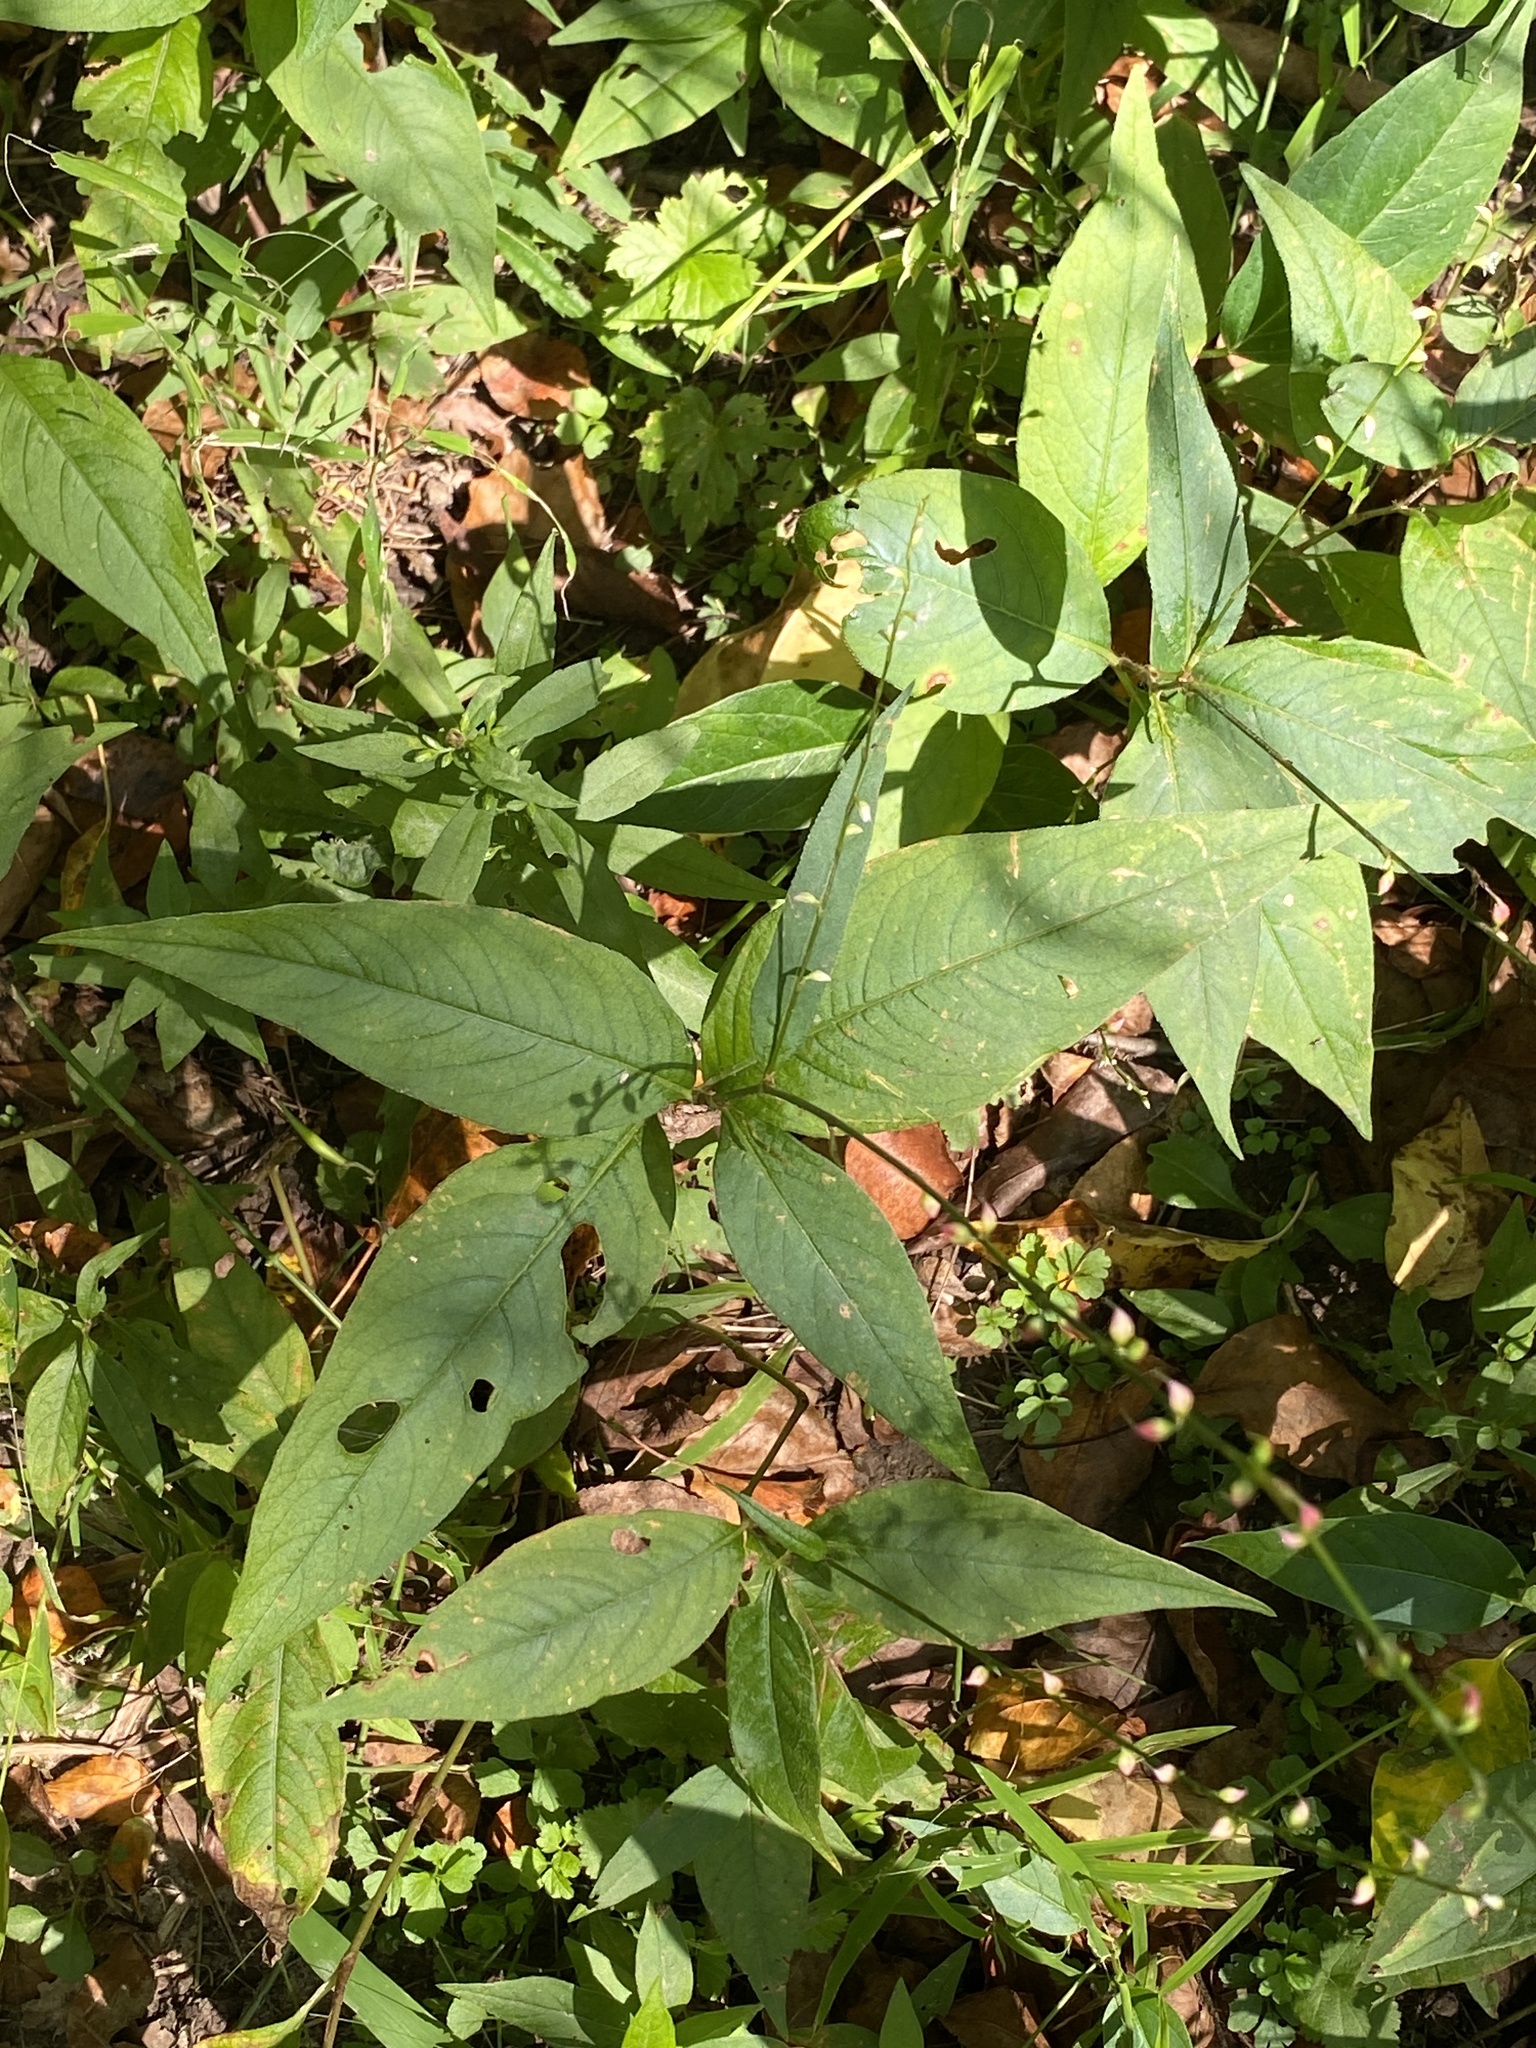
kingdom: Plantae
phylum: Tracheophyta
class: Magnoliopsida
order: Caryophyllales
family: Polygonaceae
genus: Persicaria
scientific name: Persicaria virginiana
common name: Jumpseed
